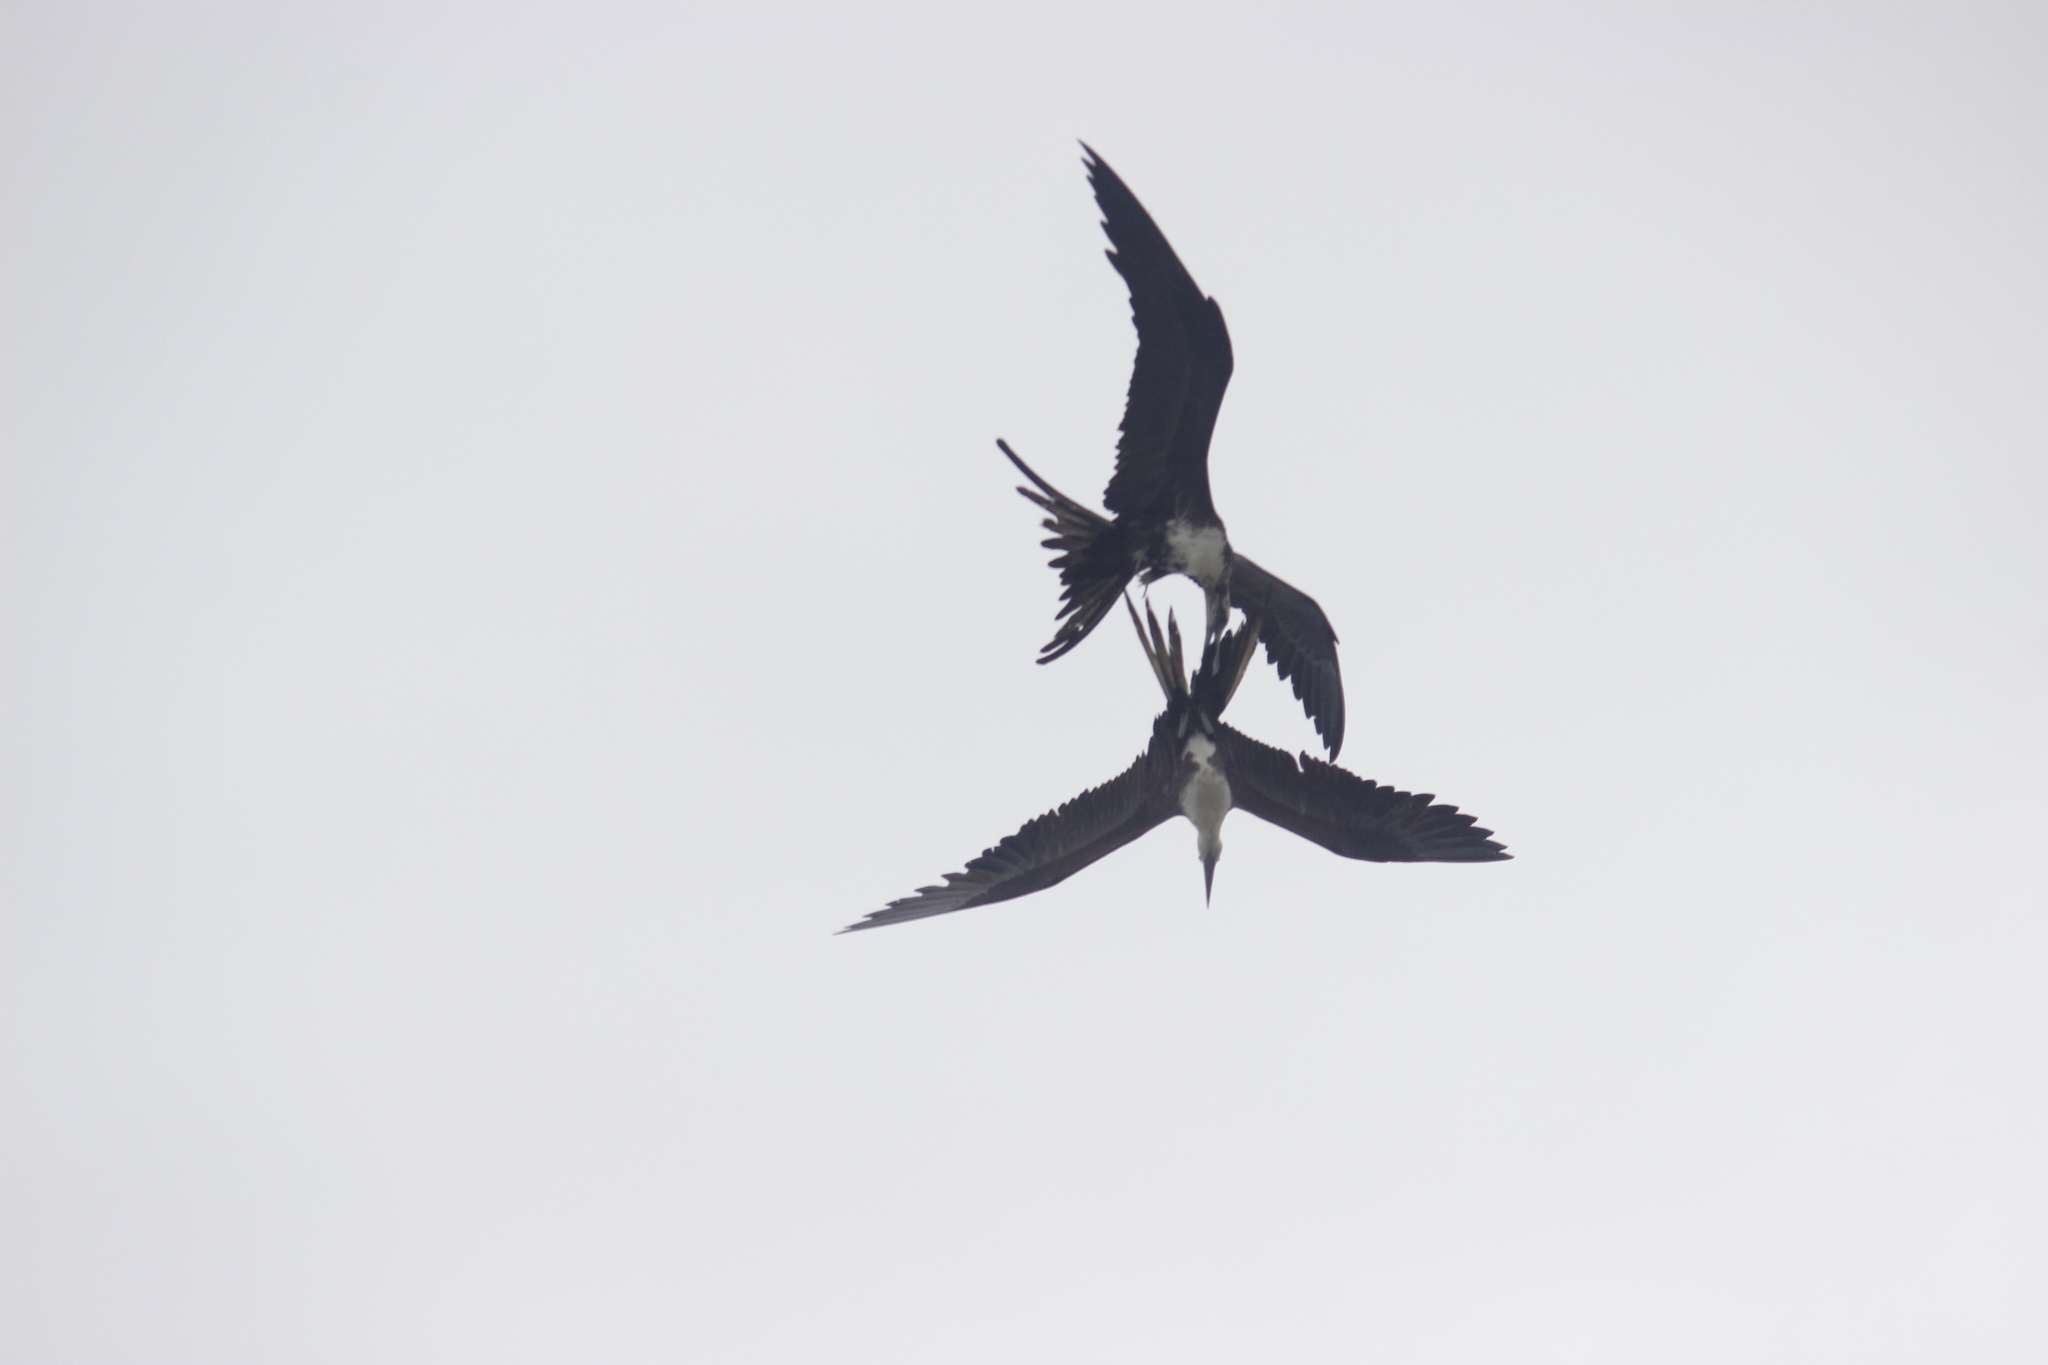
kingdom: Animalia
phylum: Chordata
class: Aves
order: Suliformes
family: Fregatidae
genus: Fregata
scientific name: Fregata magnificens
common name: Magnificent frigatebird
